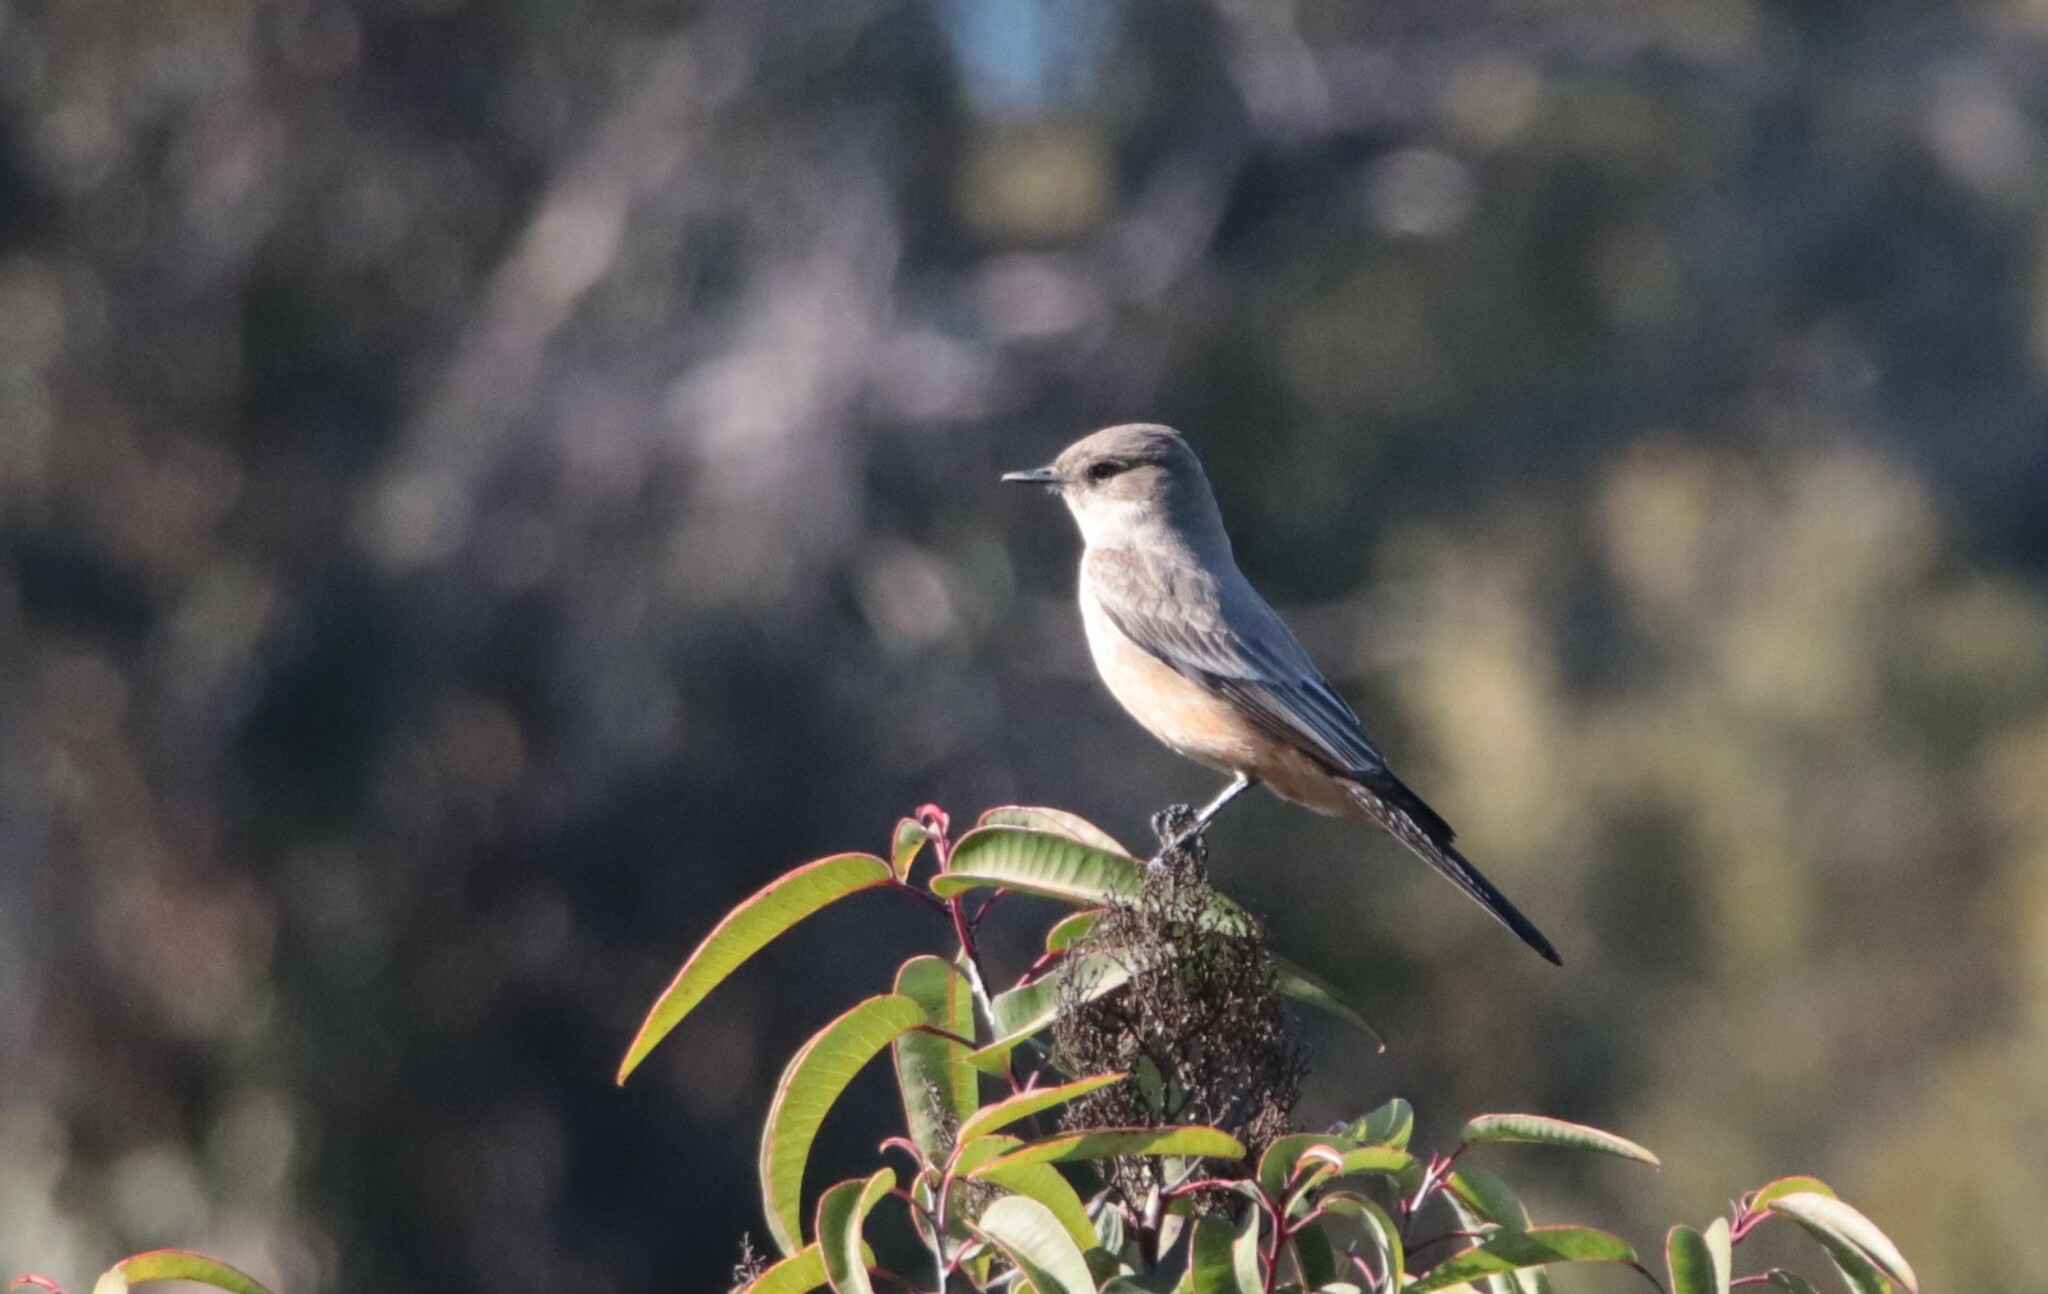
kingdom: Animalia
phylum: Chordata
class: Aves
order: Passeriformes
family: Tyrannidae
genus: Sayornis
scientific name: Sayornis saya
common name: Say's phoebe
